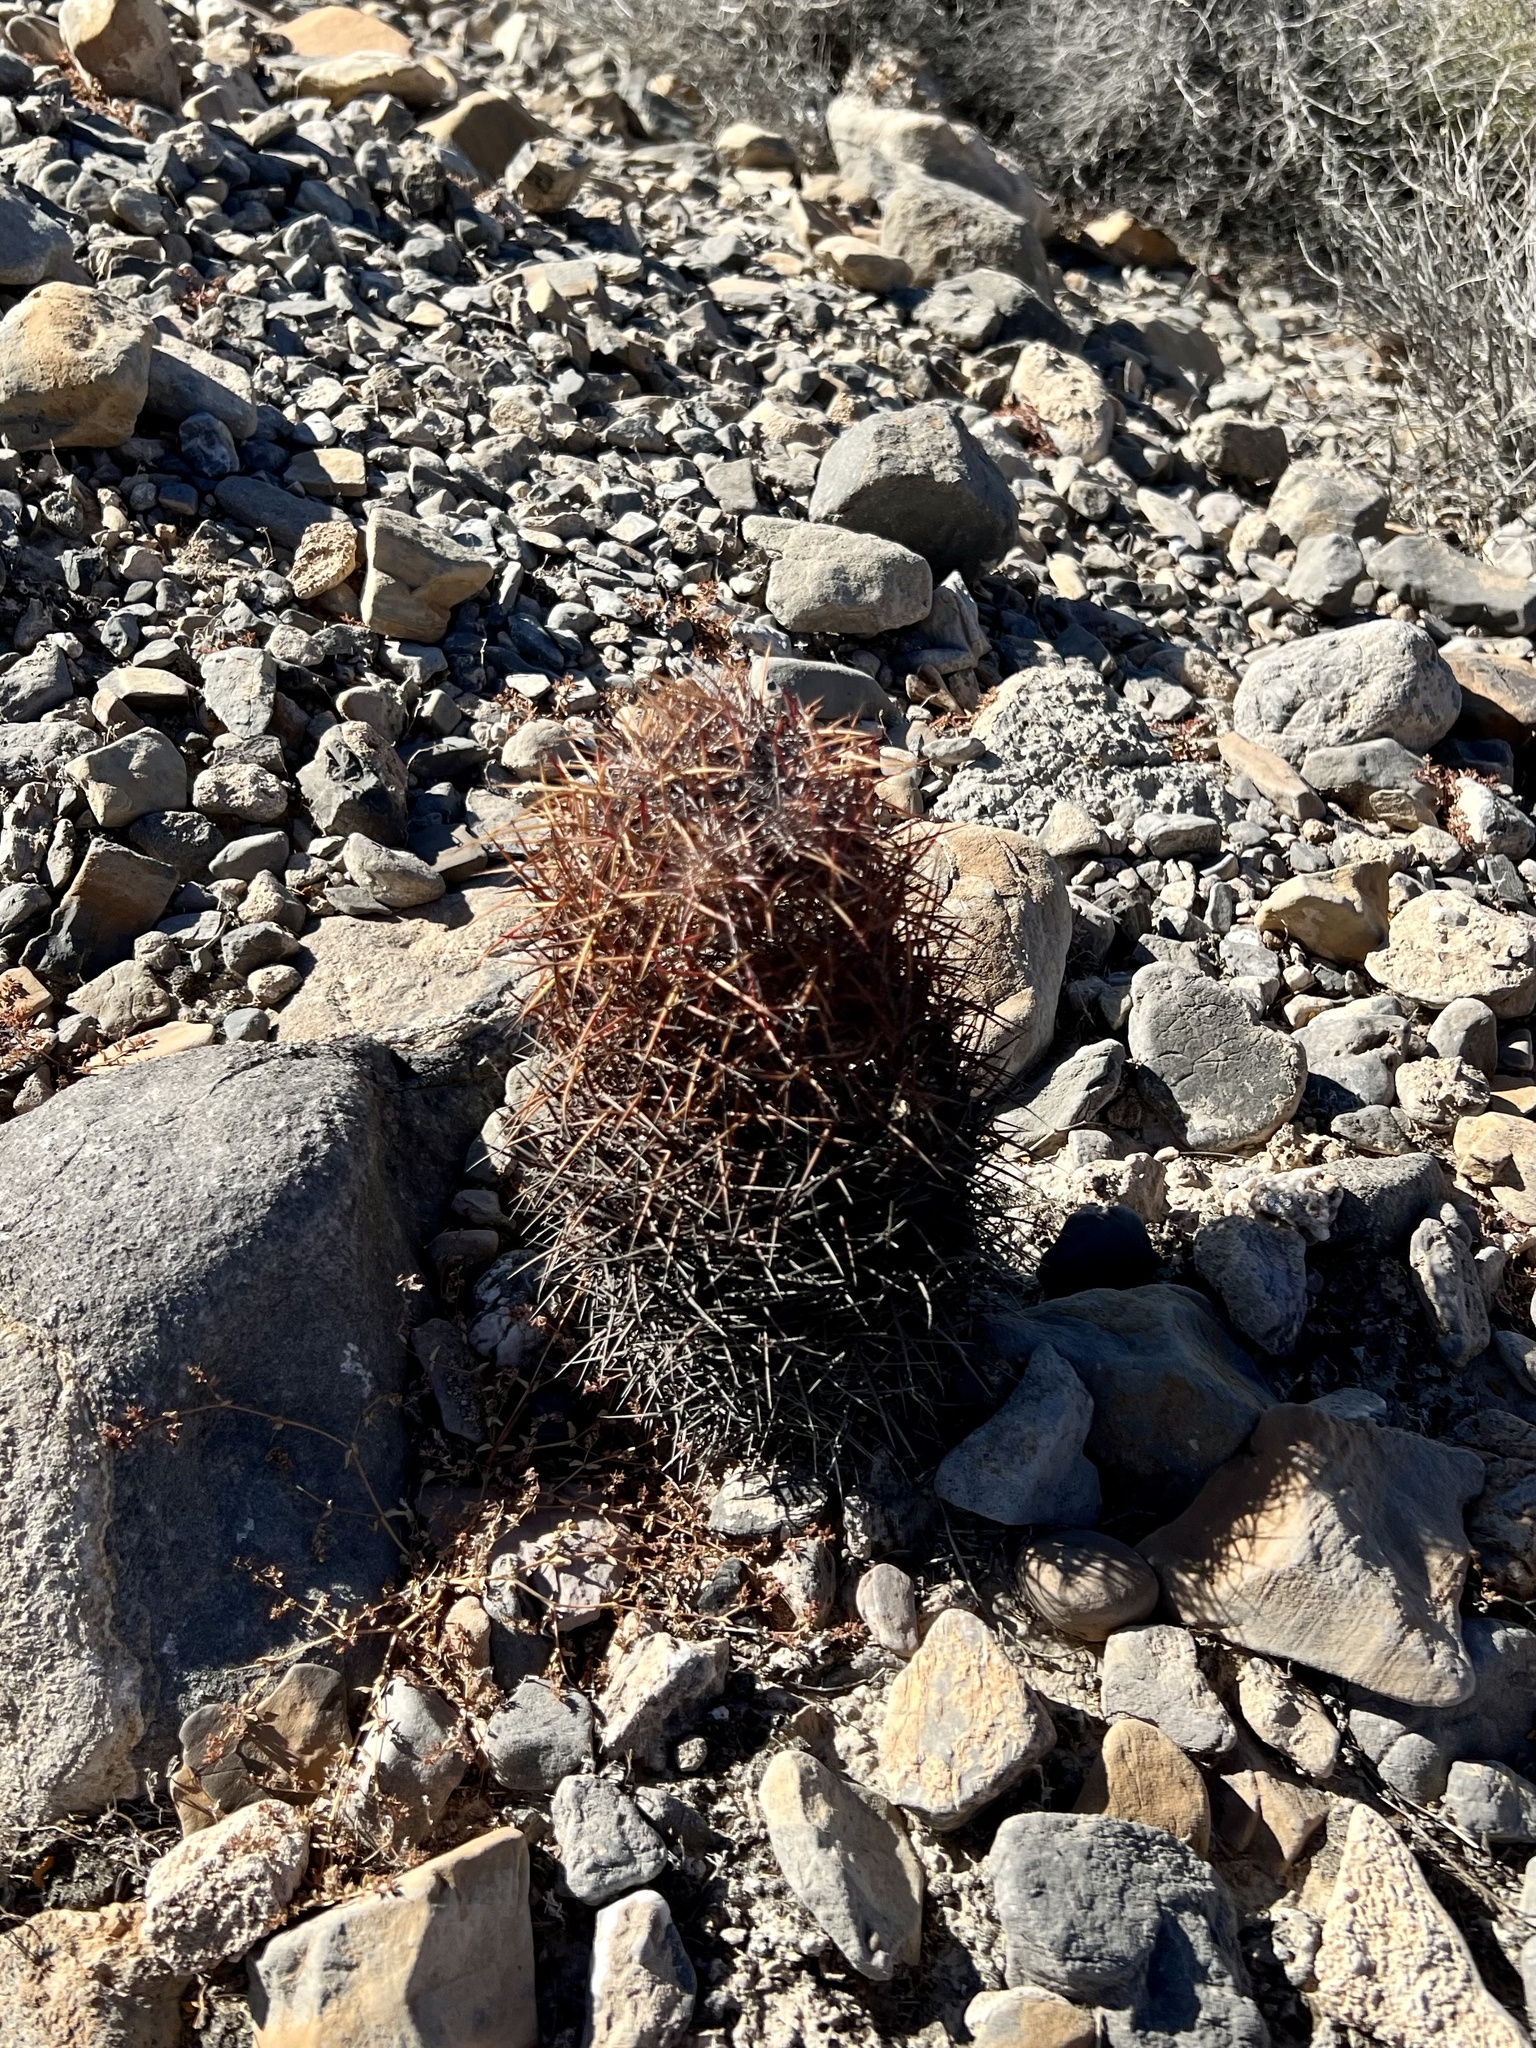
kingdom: Plantae
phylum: Tracheophyta
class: Magnoliopsida
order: Caryophyllales
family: Cactaceae
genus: Sclerocactus
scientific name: Sclerocactus johnsonii
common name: Eight-spine fishhook cactus
